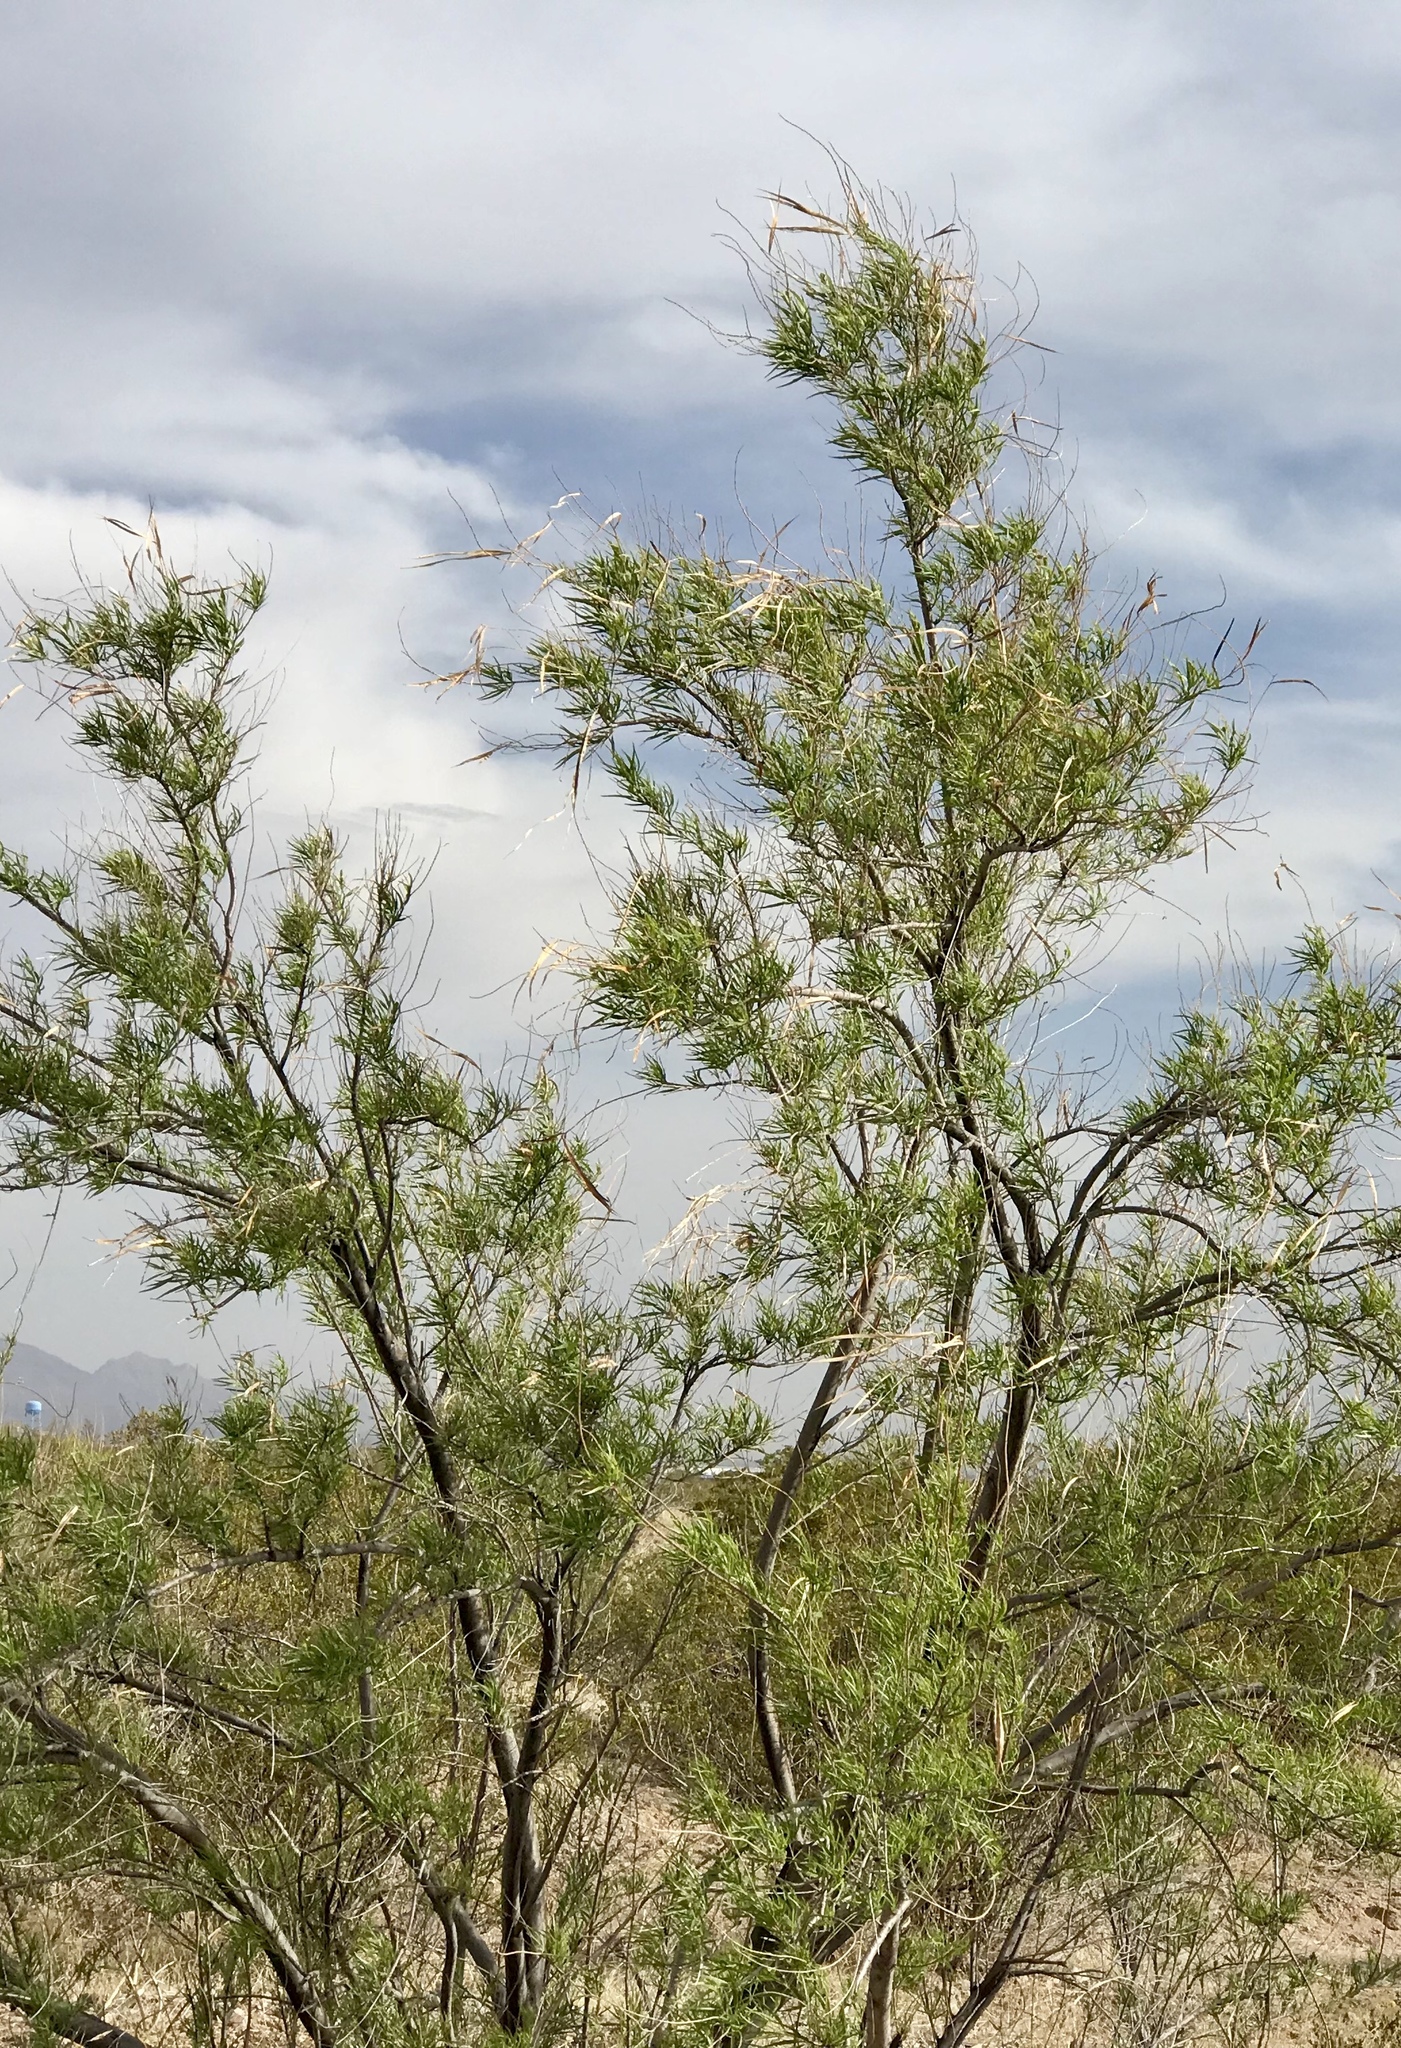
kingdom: Plantae
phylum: Tracheophyta
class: Magnoliopsida
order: Lamiales
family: Bignoniaceae
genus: Chilopsis
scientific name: Chilopsis linearis
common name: Desert-willow
